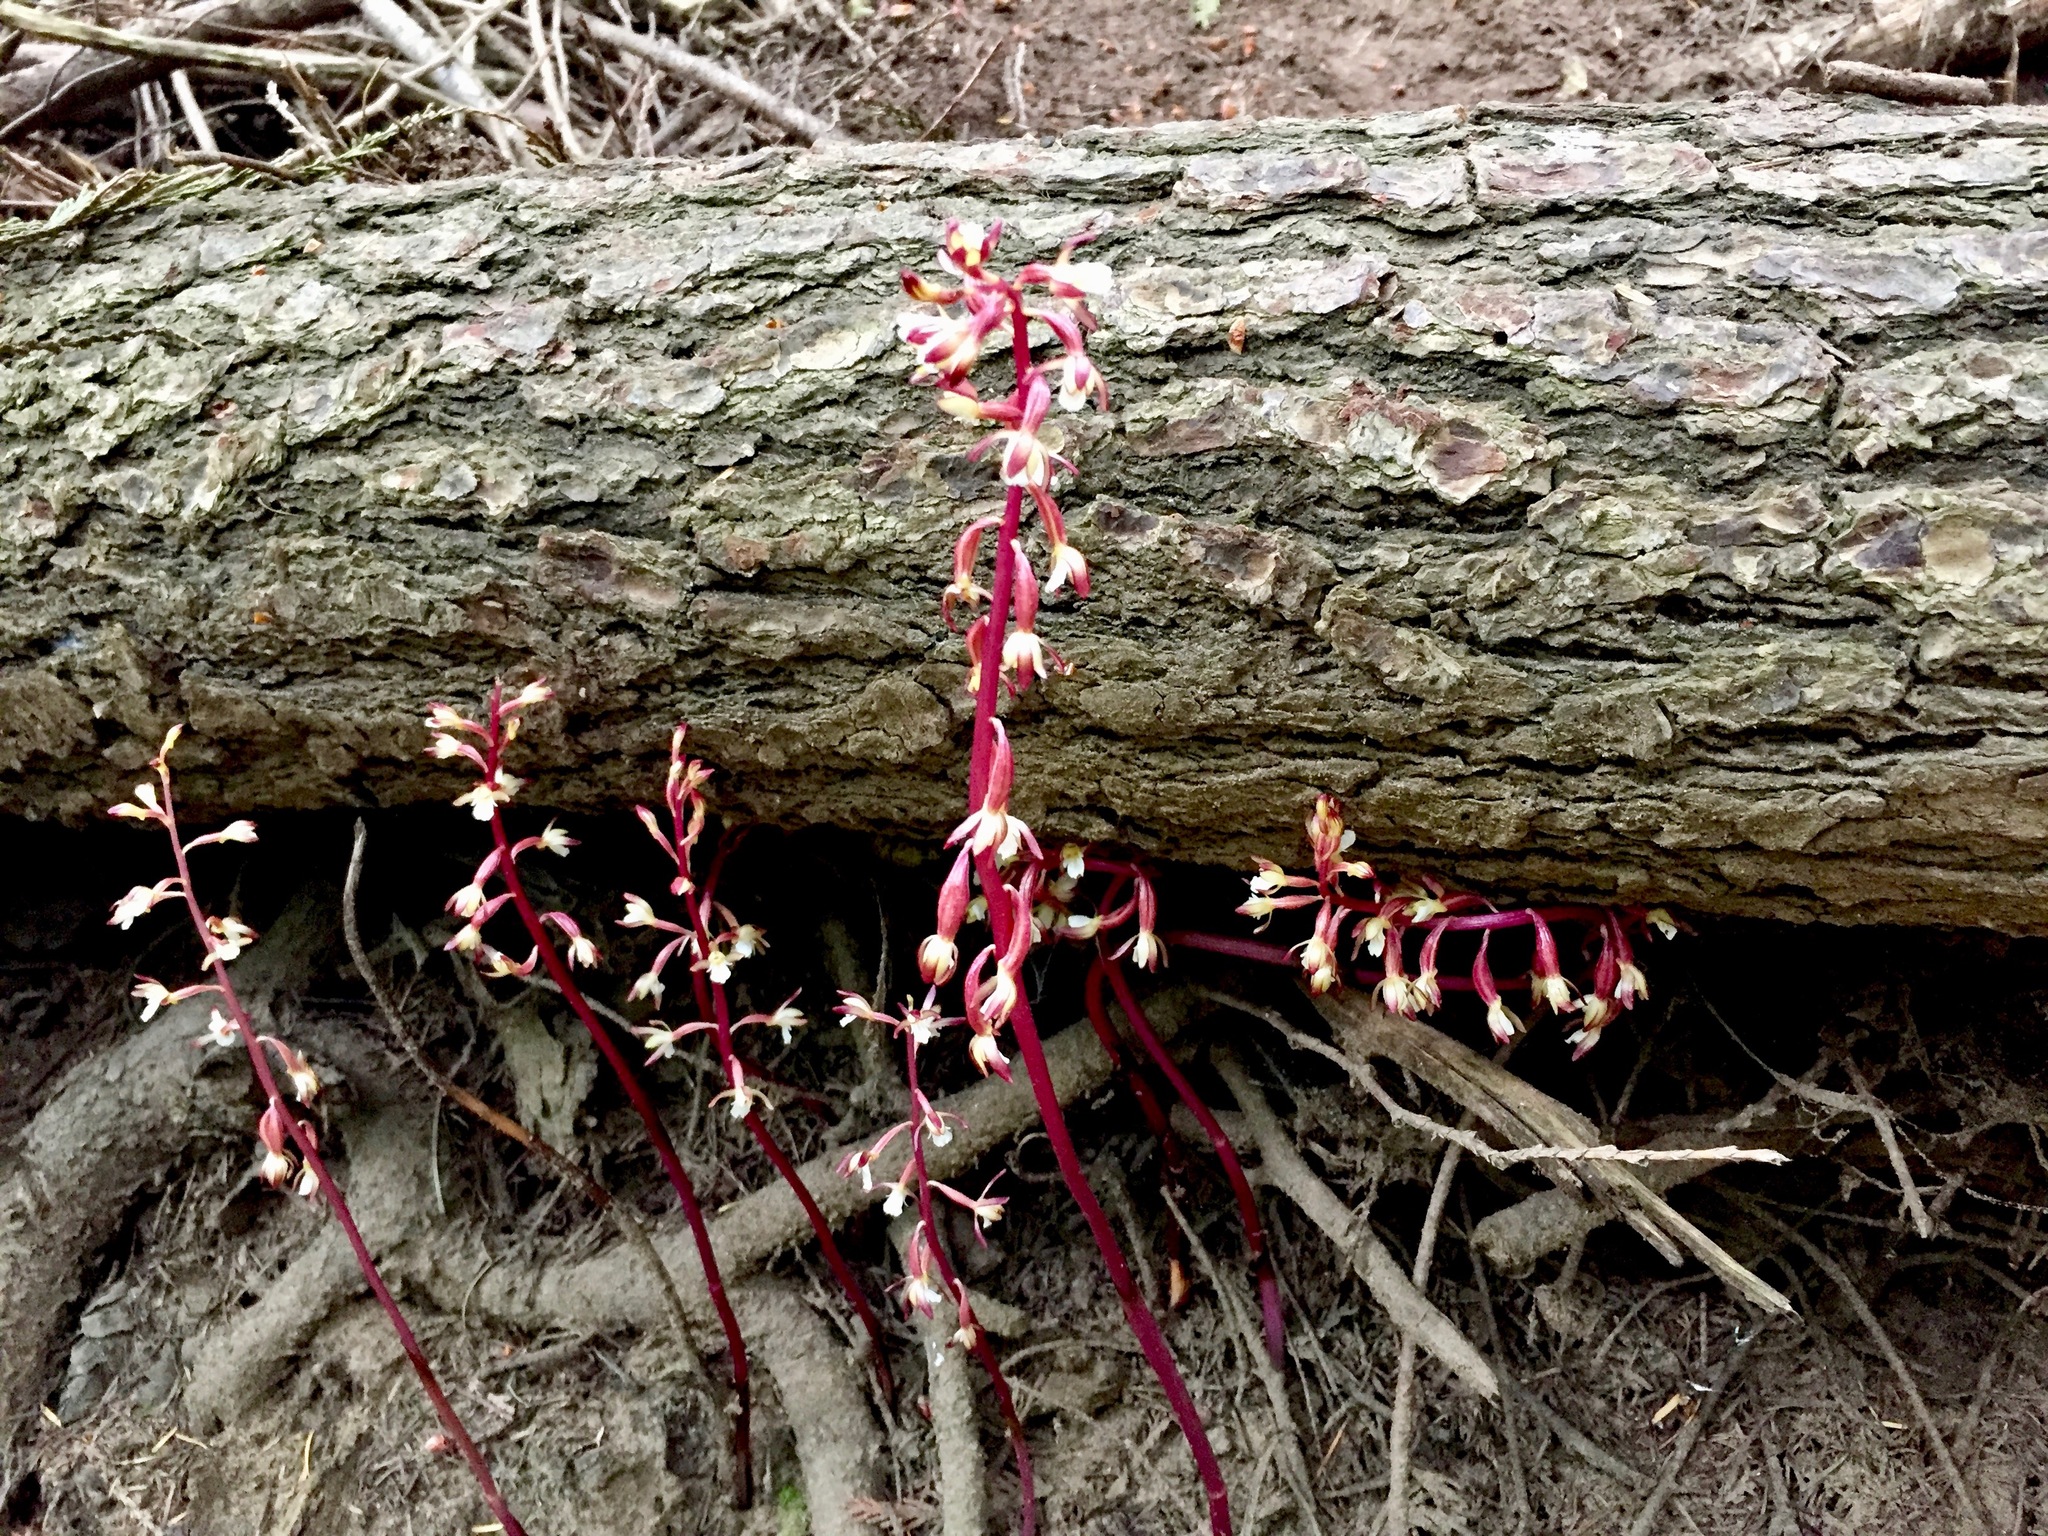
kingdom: Plantae
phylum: Tracheophyta
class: Liliopsida
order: Asparagales
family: Orchidaceae
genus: Corallorhiza
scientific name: Corallorhiza maculata
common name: Spotted coralroot
